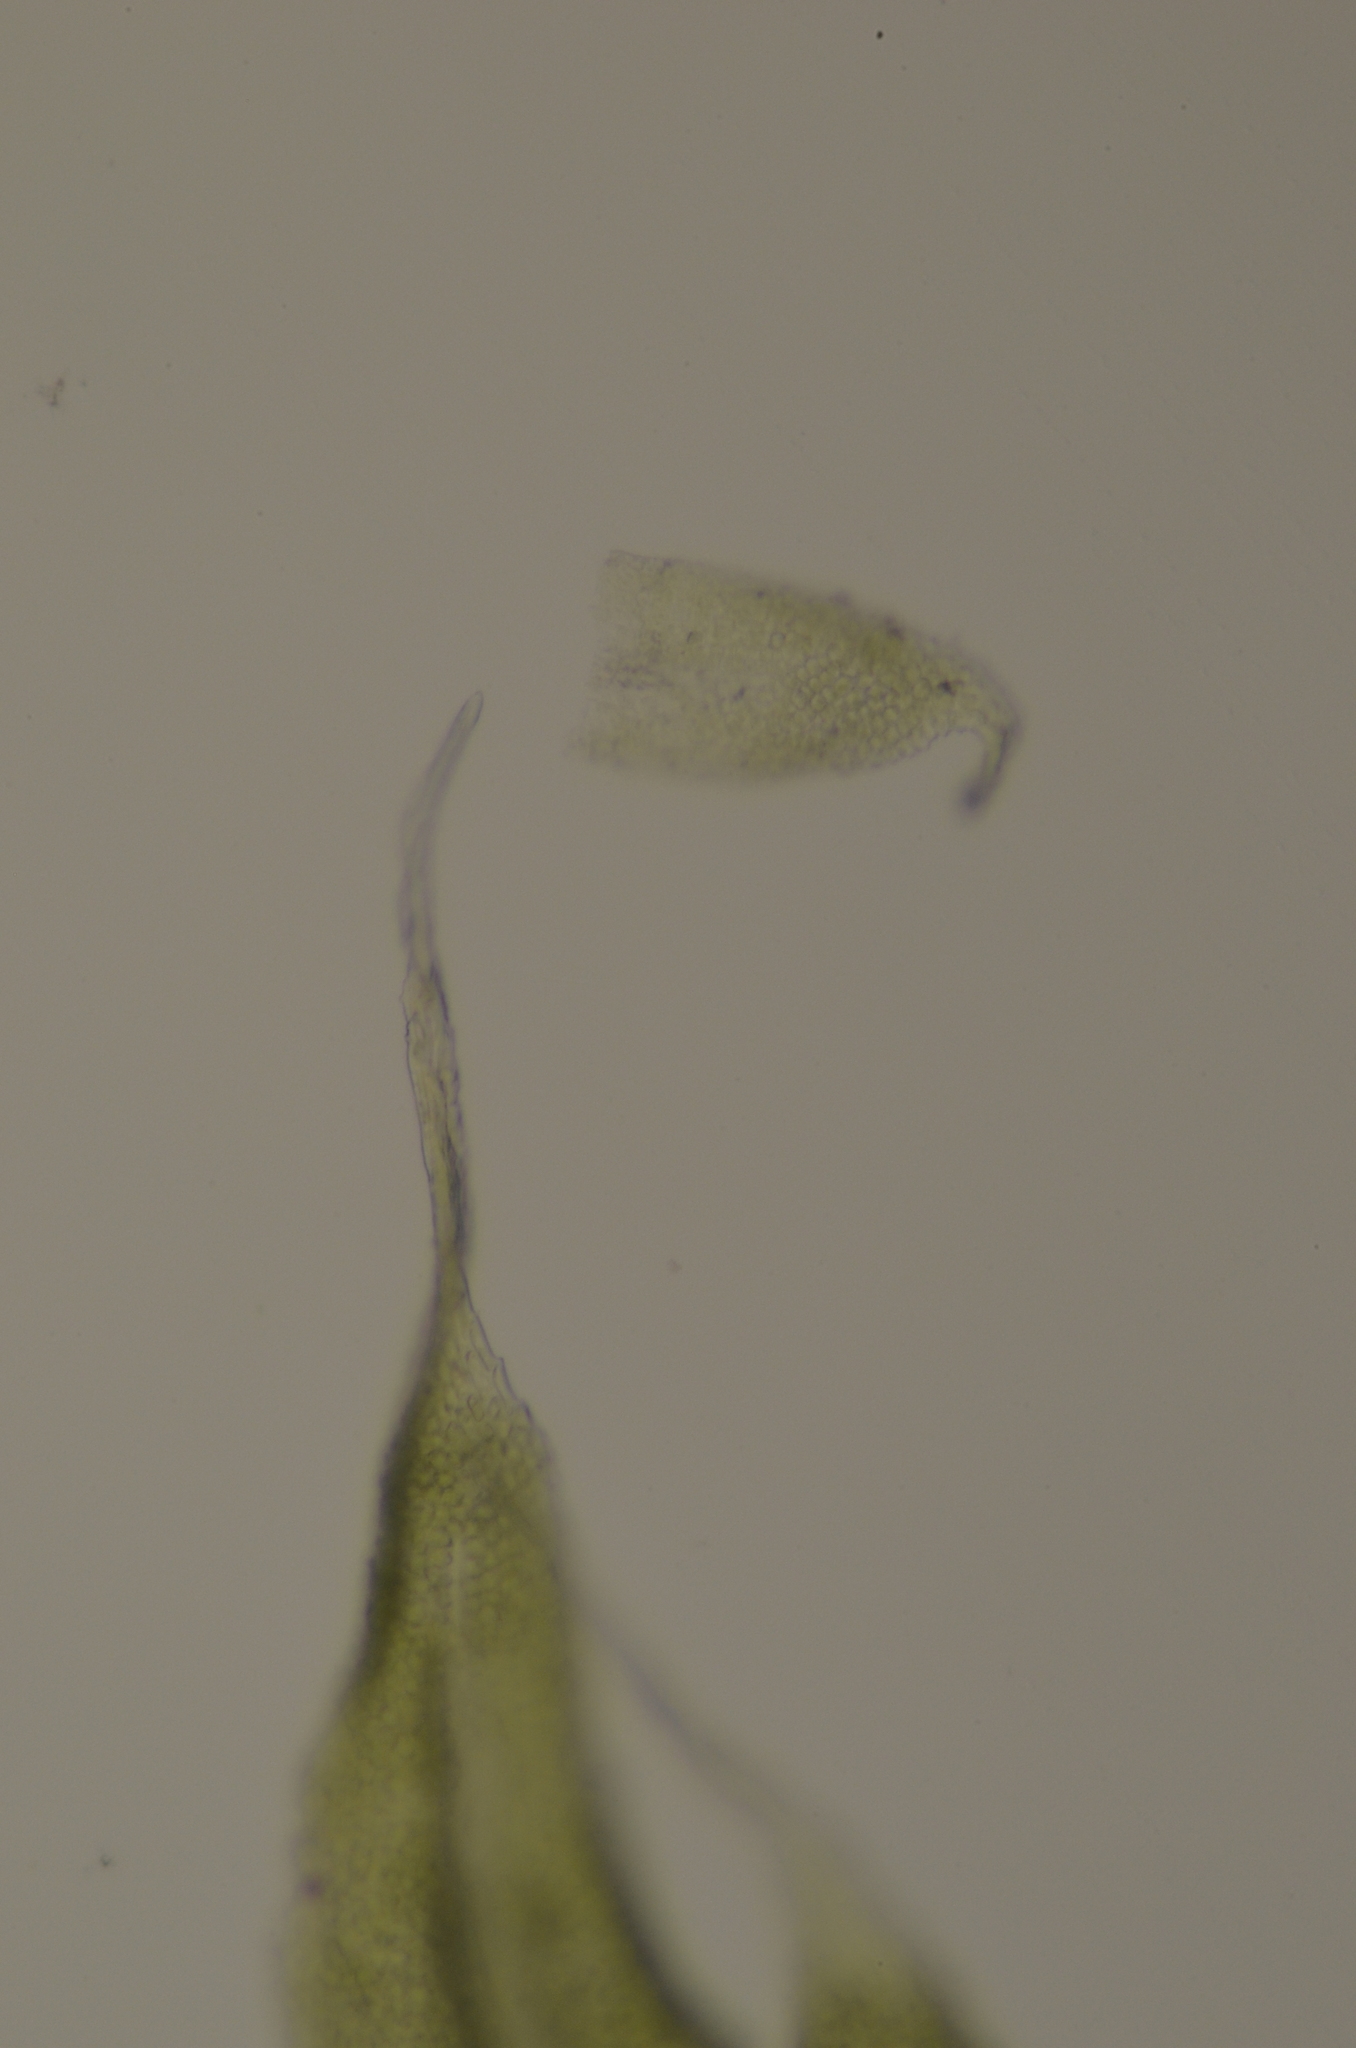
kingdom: Plantae
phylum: Bryophyta
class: Bryopsida
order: Hypnales
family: Brachytheciaceae
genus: Claopodium
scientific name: Claopodium bolanderi
